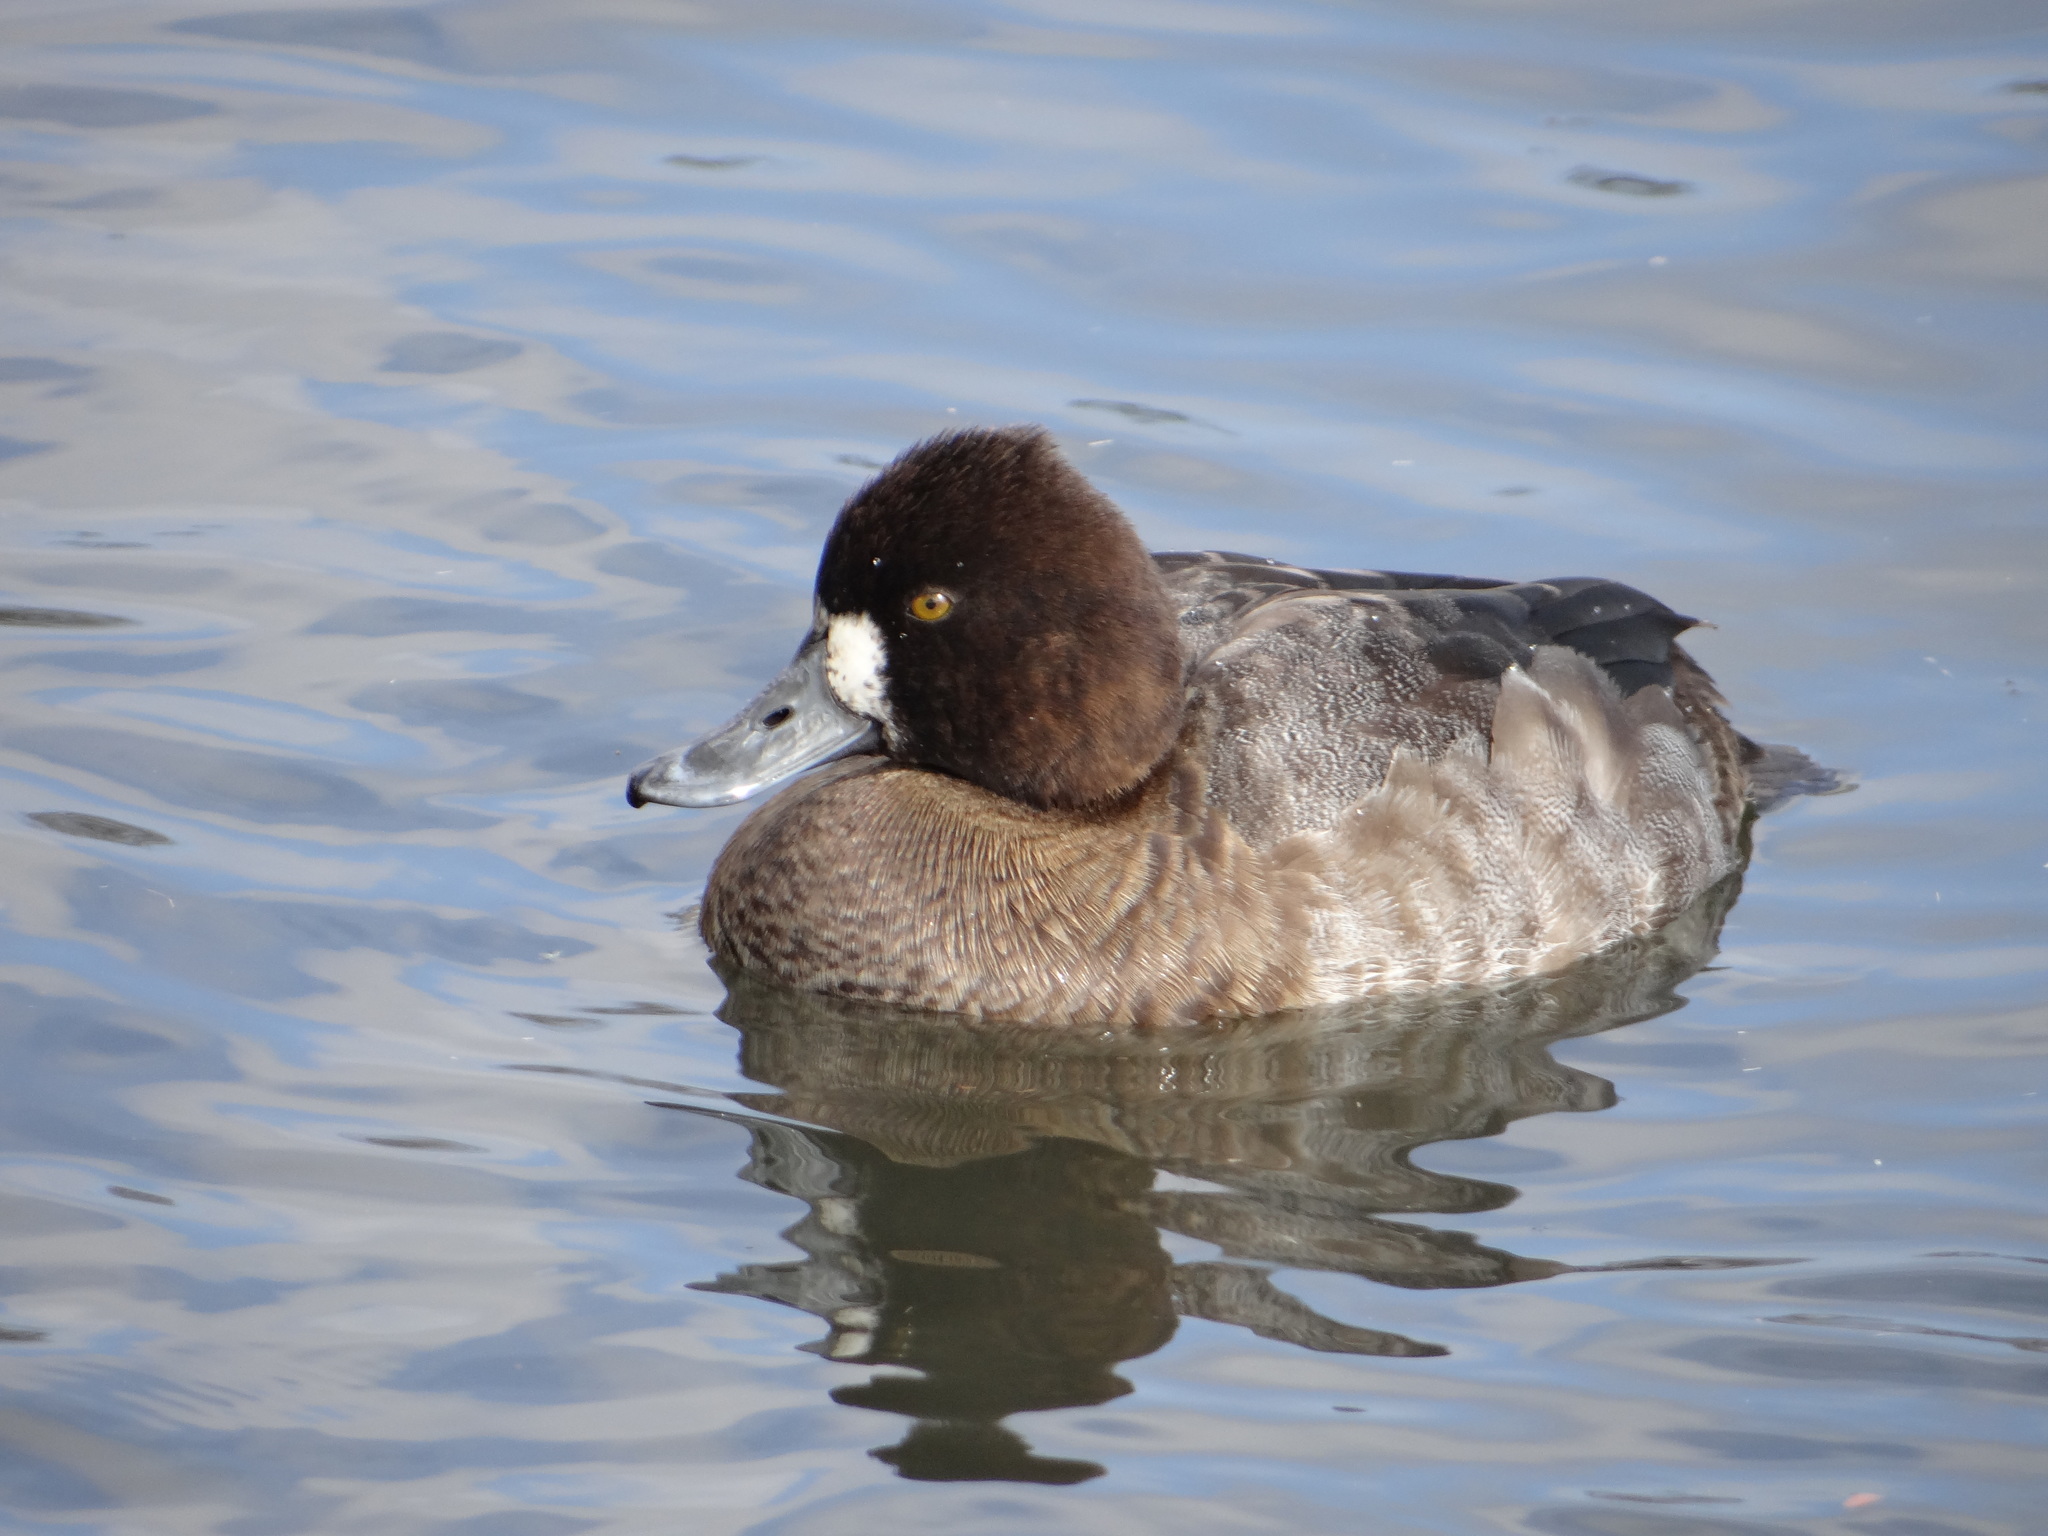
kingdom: Animalia
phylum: Chordata
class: Aves
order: Anseriformes
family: Anatidae
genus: Aythya
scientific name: Aythya affinis
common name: Lesser scaup
